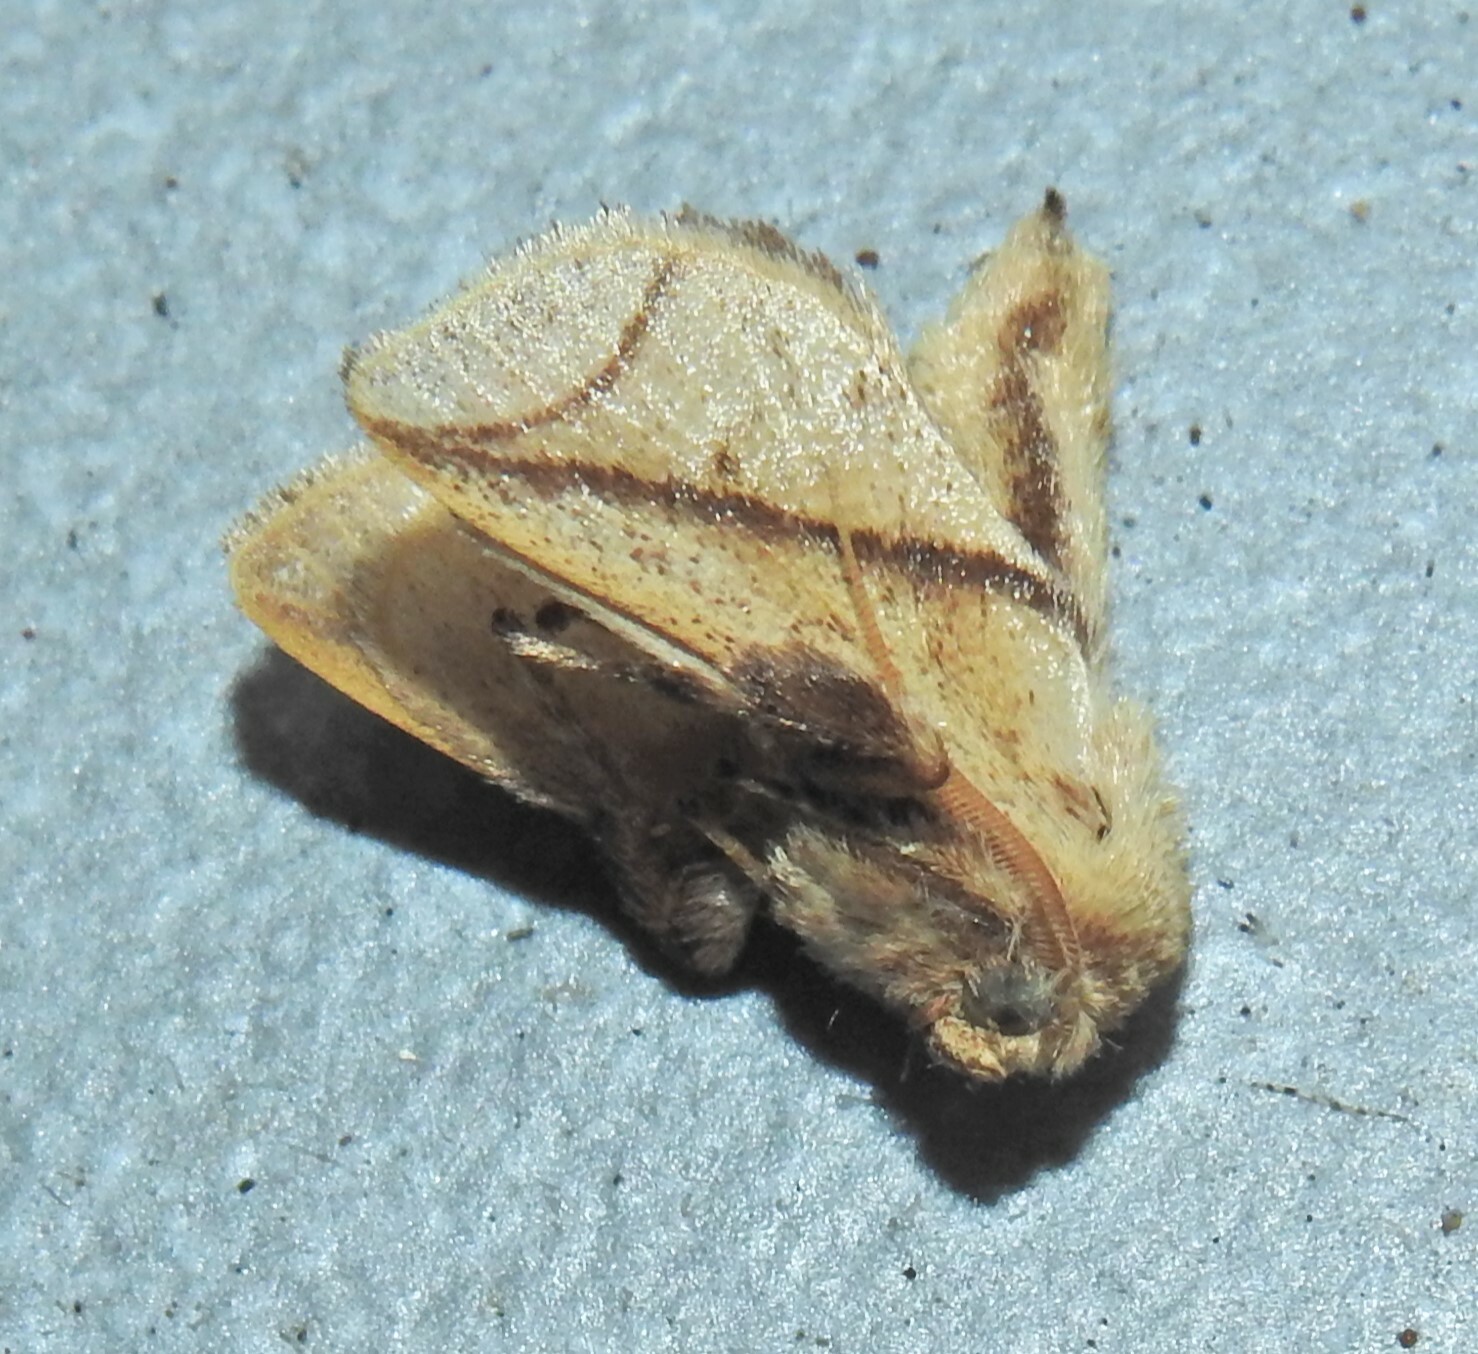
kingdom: Animalia
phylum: Arthropoda
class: Insecta
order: Lepidoptera
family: Limacodidae
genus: Anaxidia
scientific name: Anaxidia lozogramma
